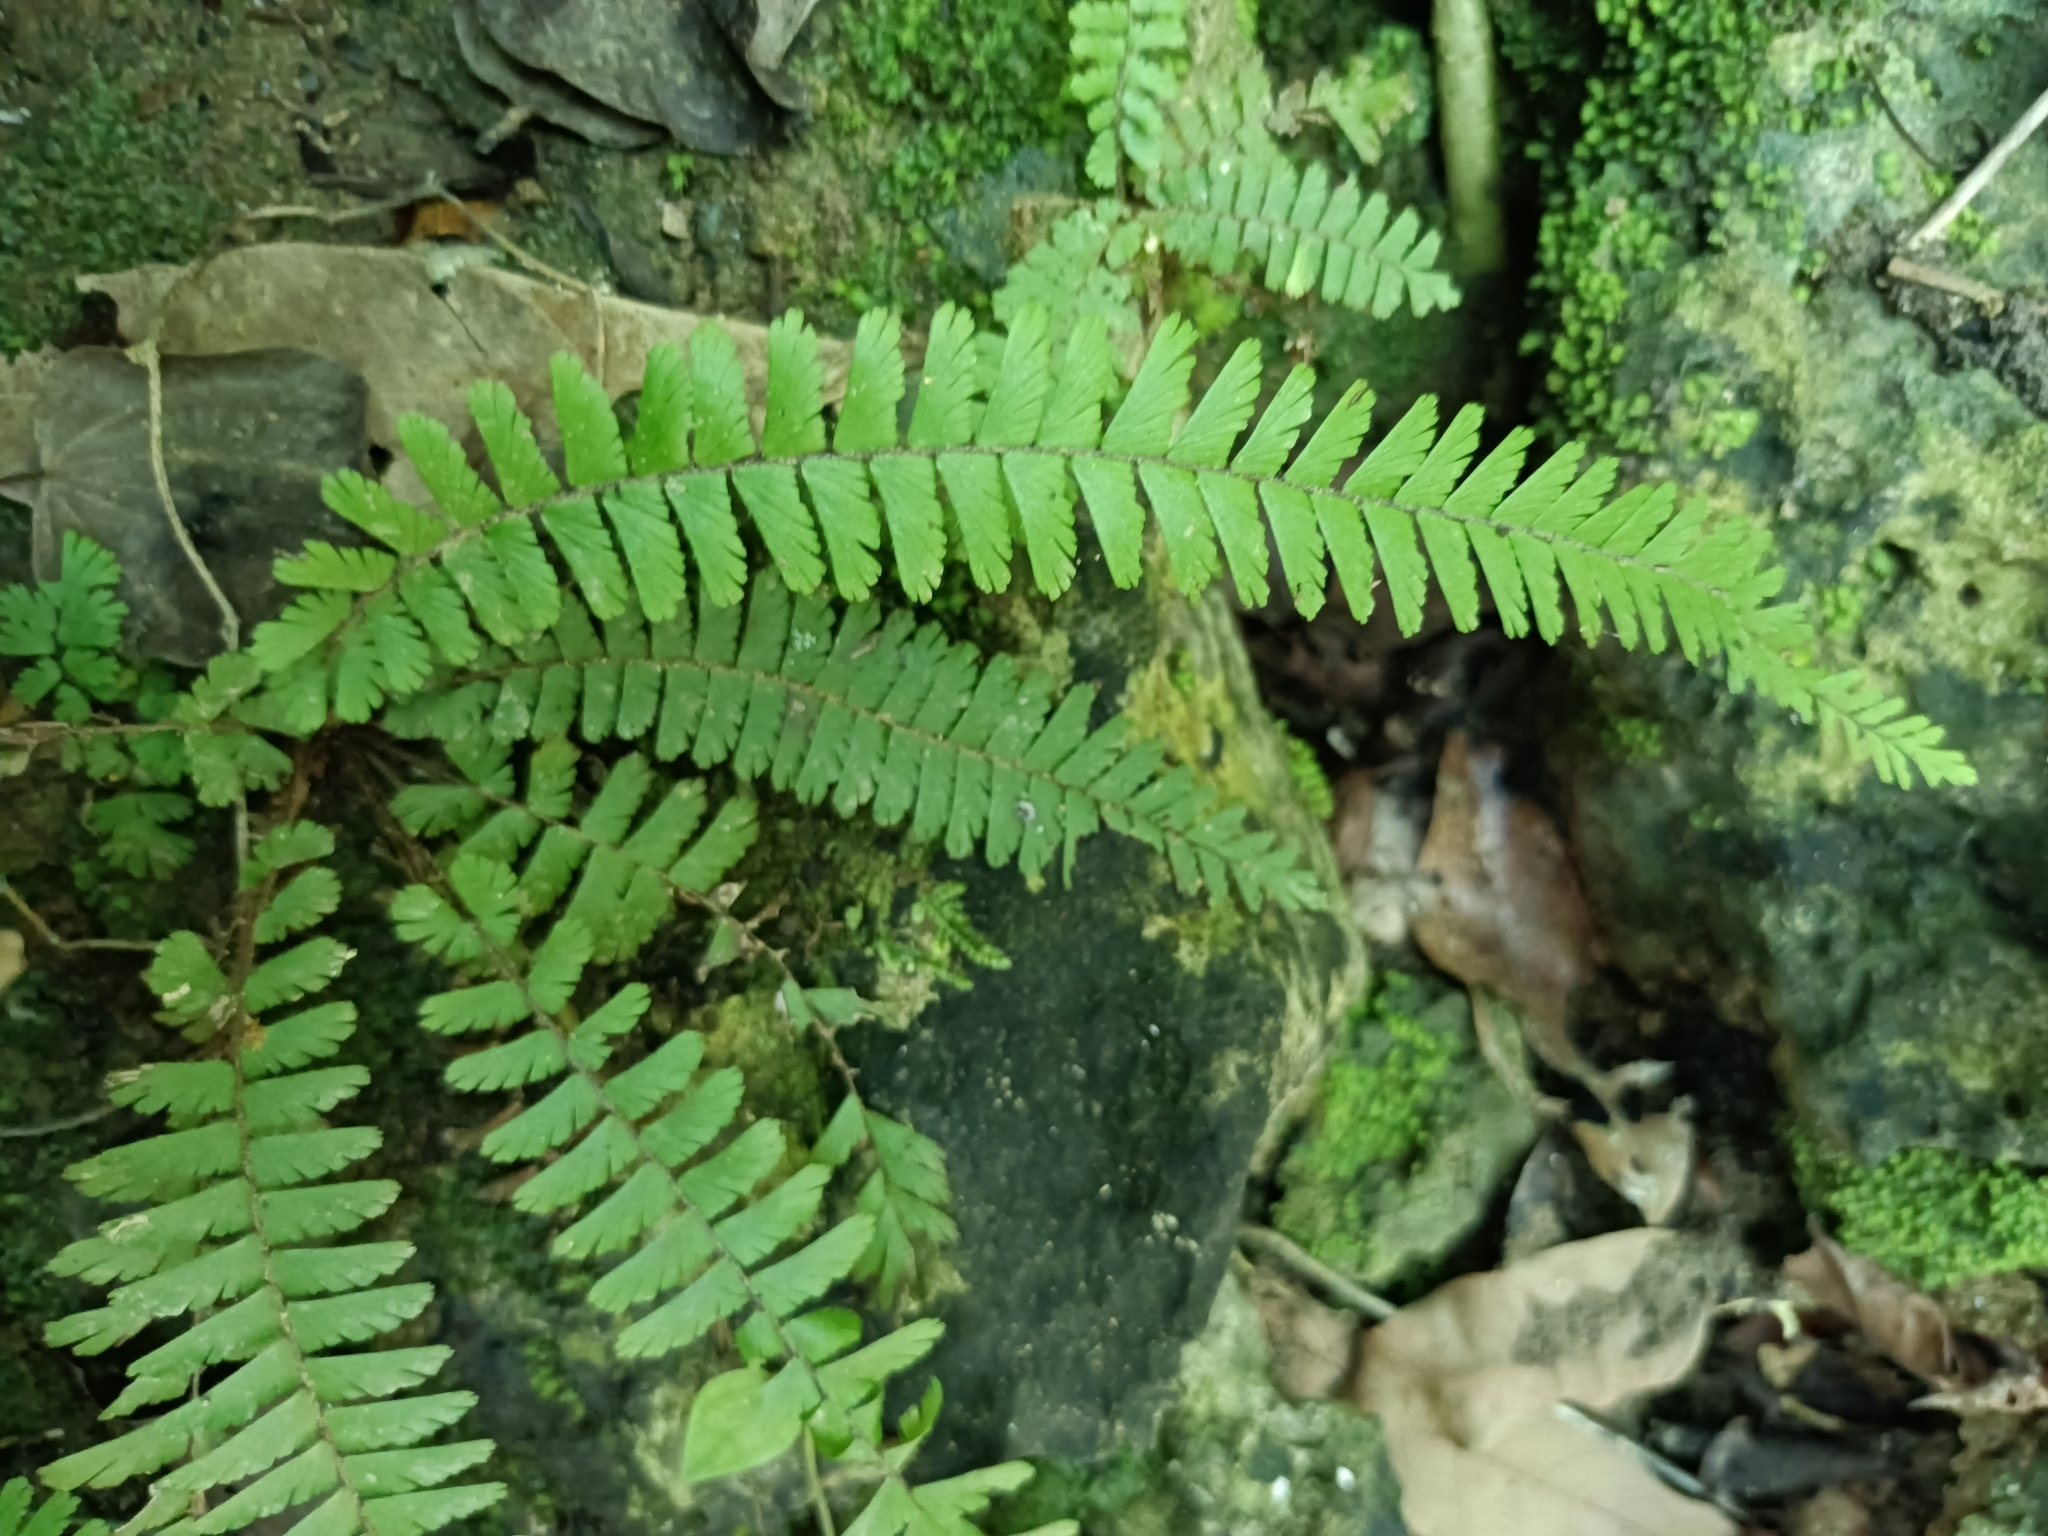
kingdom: Plantae
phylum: Tracheophyta
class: Polypodiopsida
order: Polypodiales
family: Pteridaceae
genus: Adiantum
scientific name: Adiantum caudatum
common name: Tailed maidenhair
